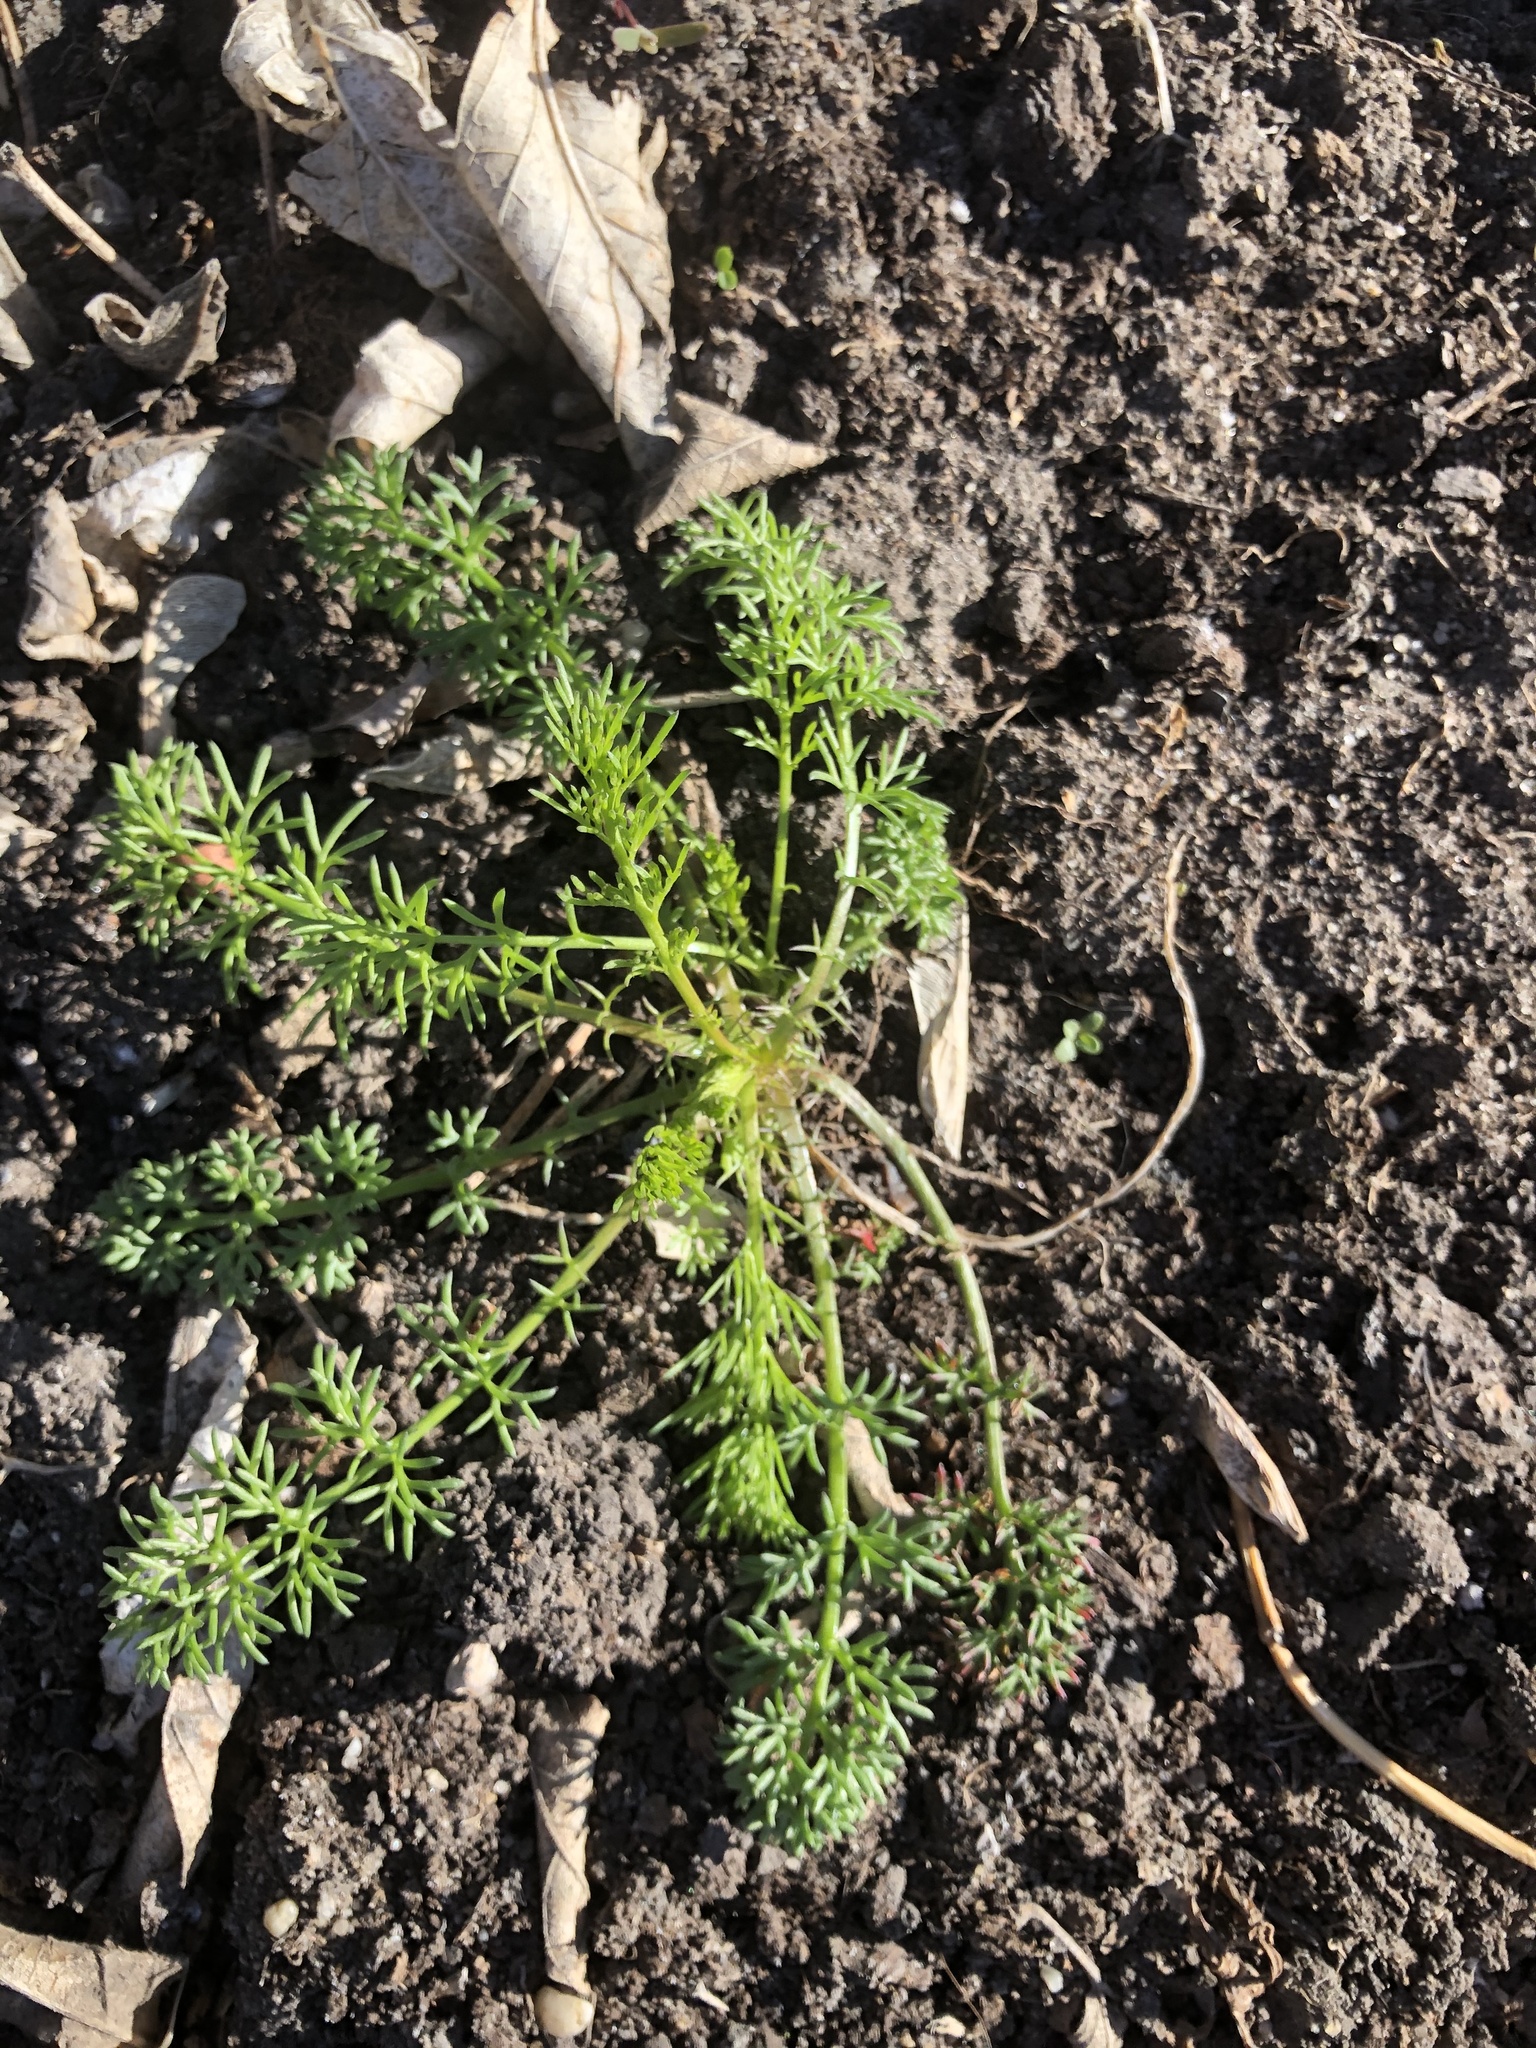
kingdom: Plantae
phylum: Tracheophyta
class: Magnoliopsida
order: Asterales
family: Asteraceae
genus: Tripleurospermum
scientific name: Tripleurospermum inodorum
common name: Scentless mayweed
